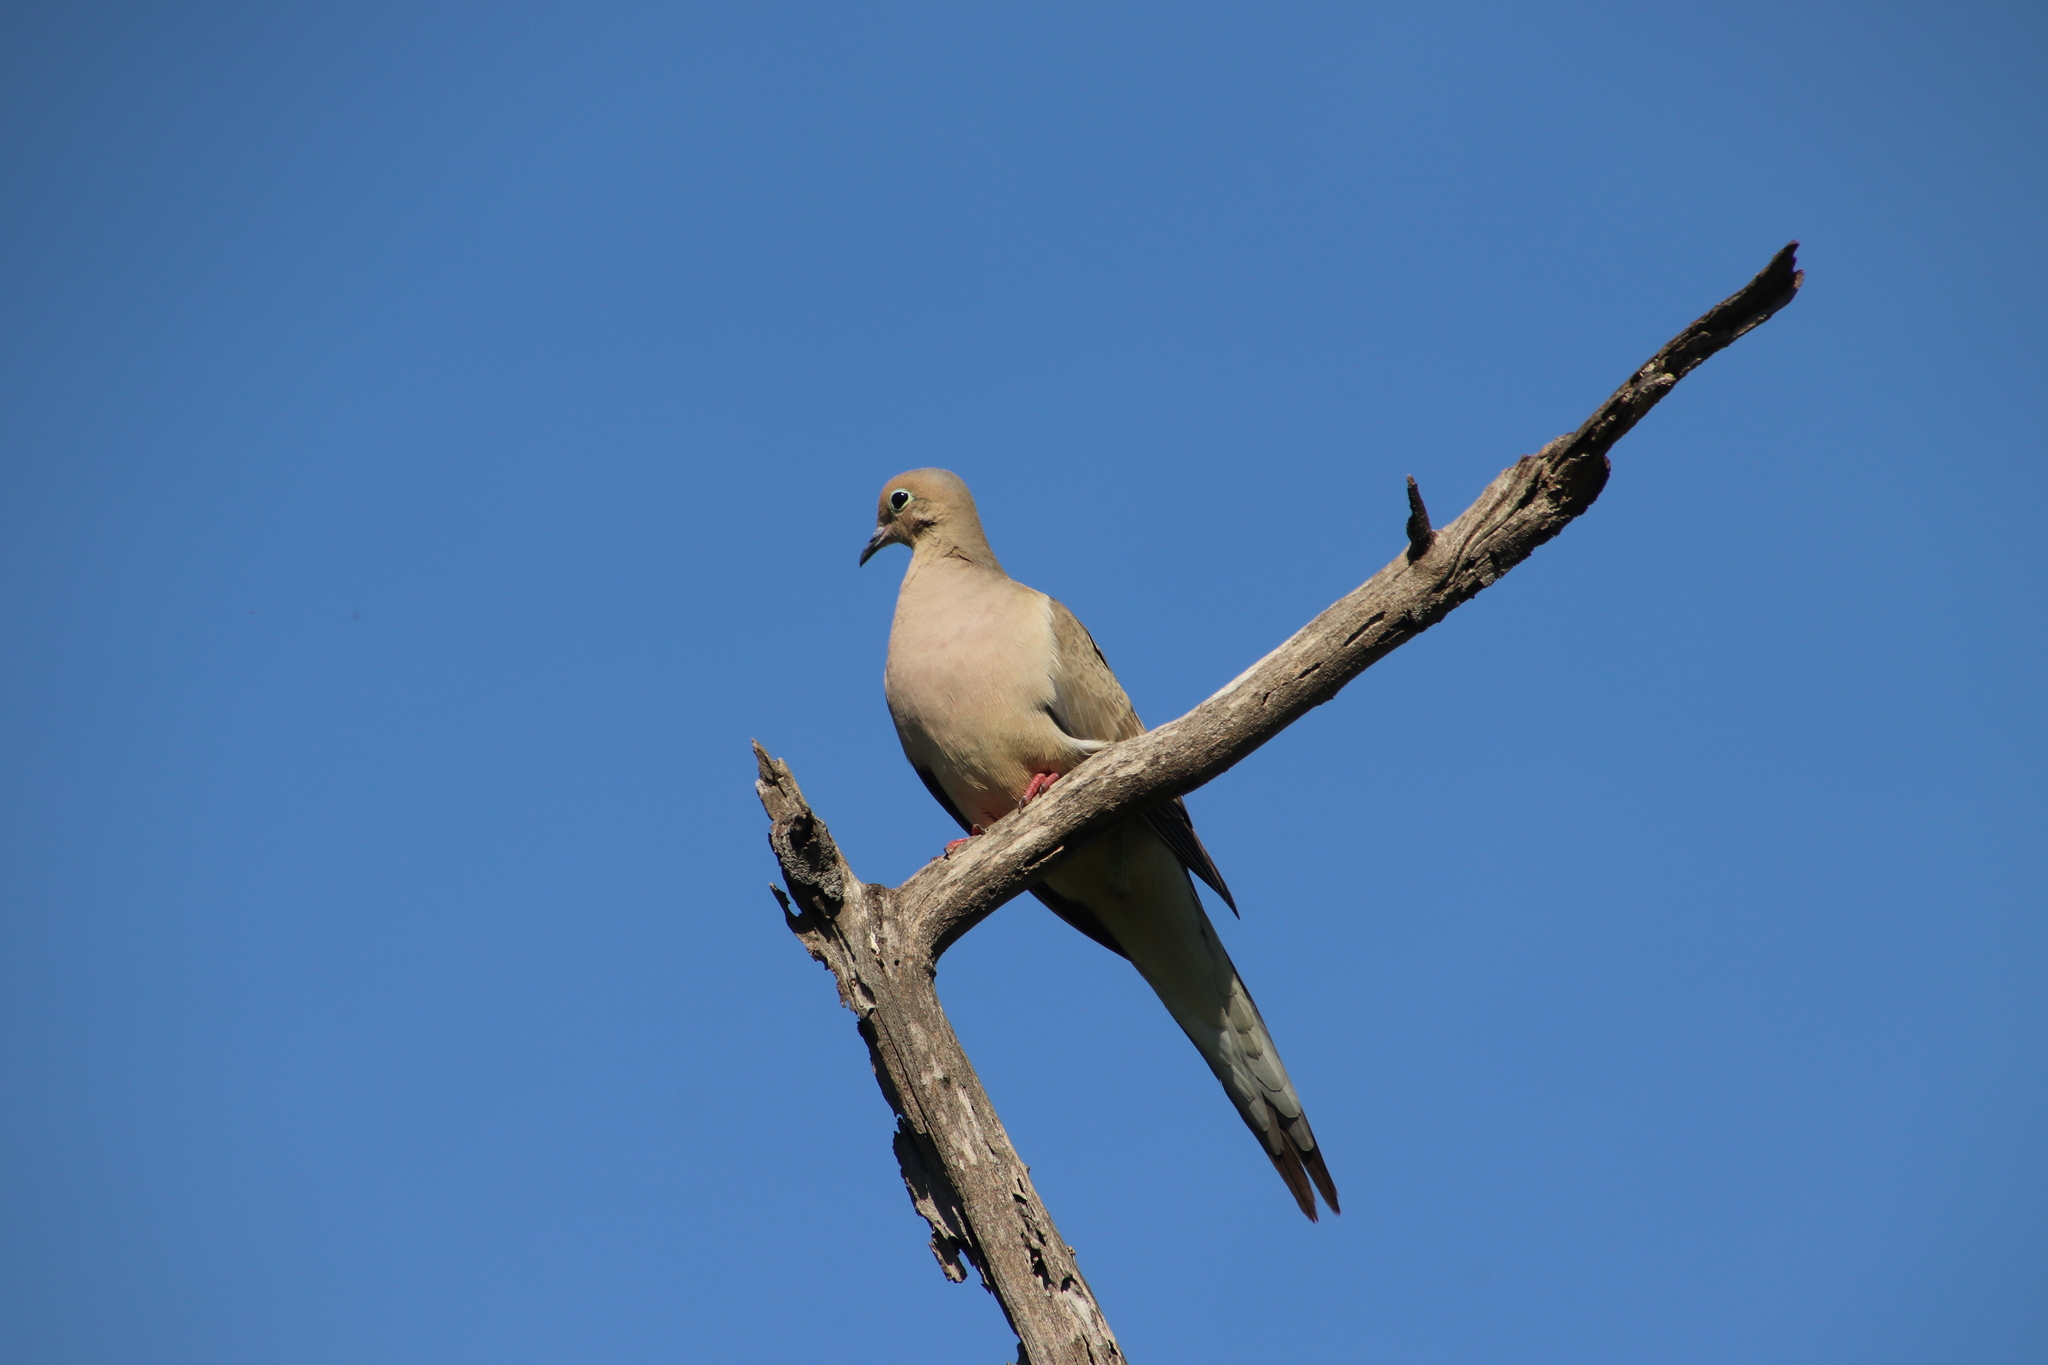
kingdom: Animalia
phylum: Chordata
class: Aves
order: Columbiformes
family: Columbidae
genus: Zenaida
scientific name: Zenaida macroura
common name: Mourning dove
